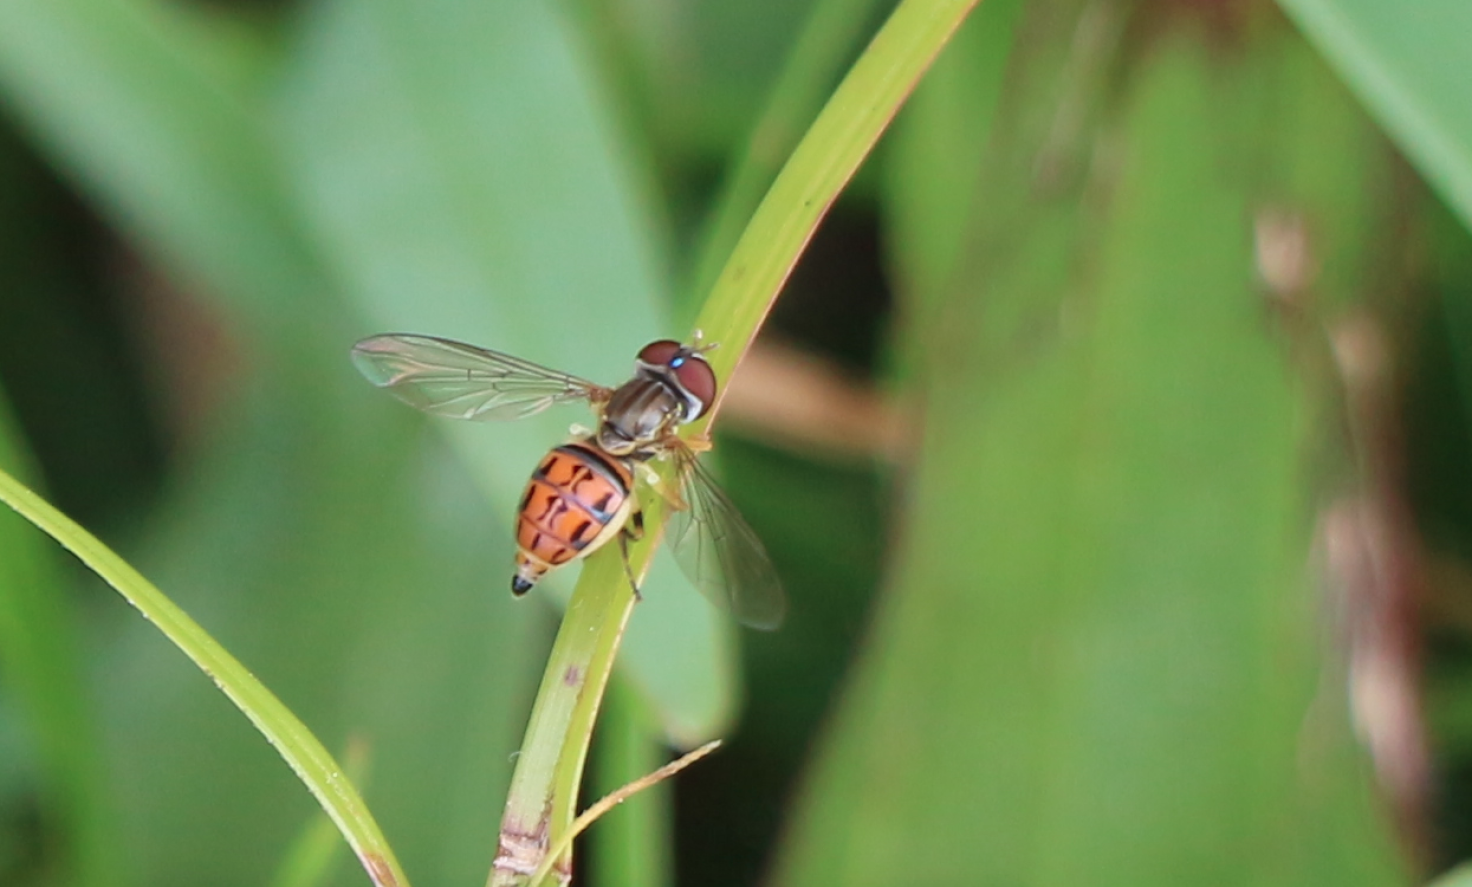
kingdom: Animalia
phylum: Arthropoda
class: Insecta
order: Diptera
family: Syrphidae
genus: Toxomerus
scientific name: Toxomerus boscii
